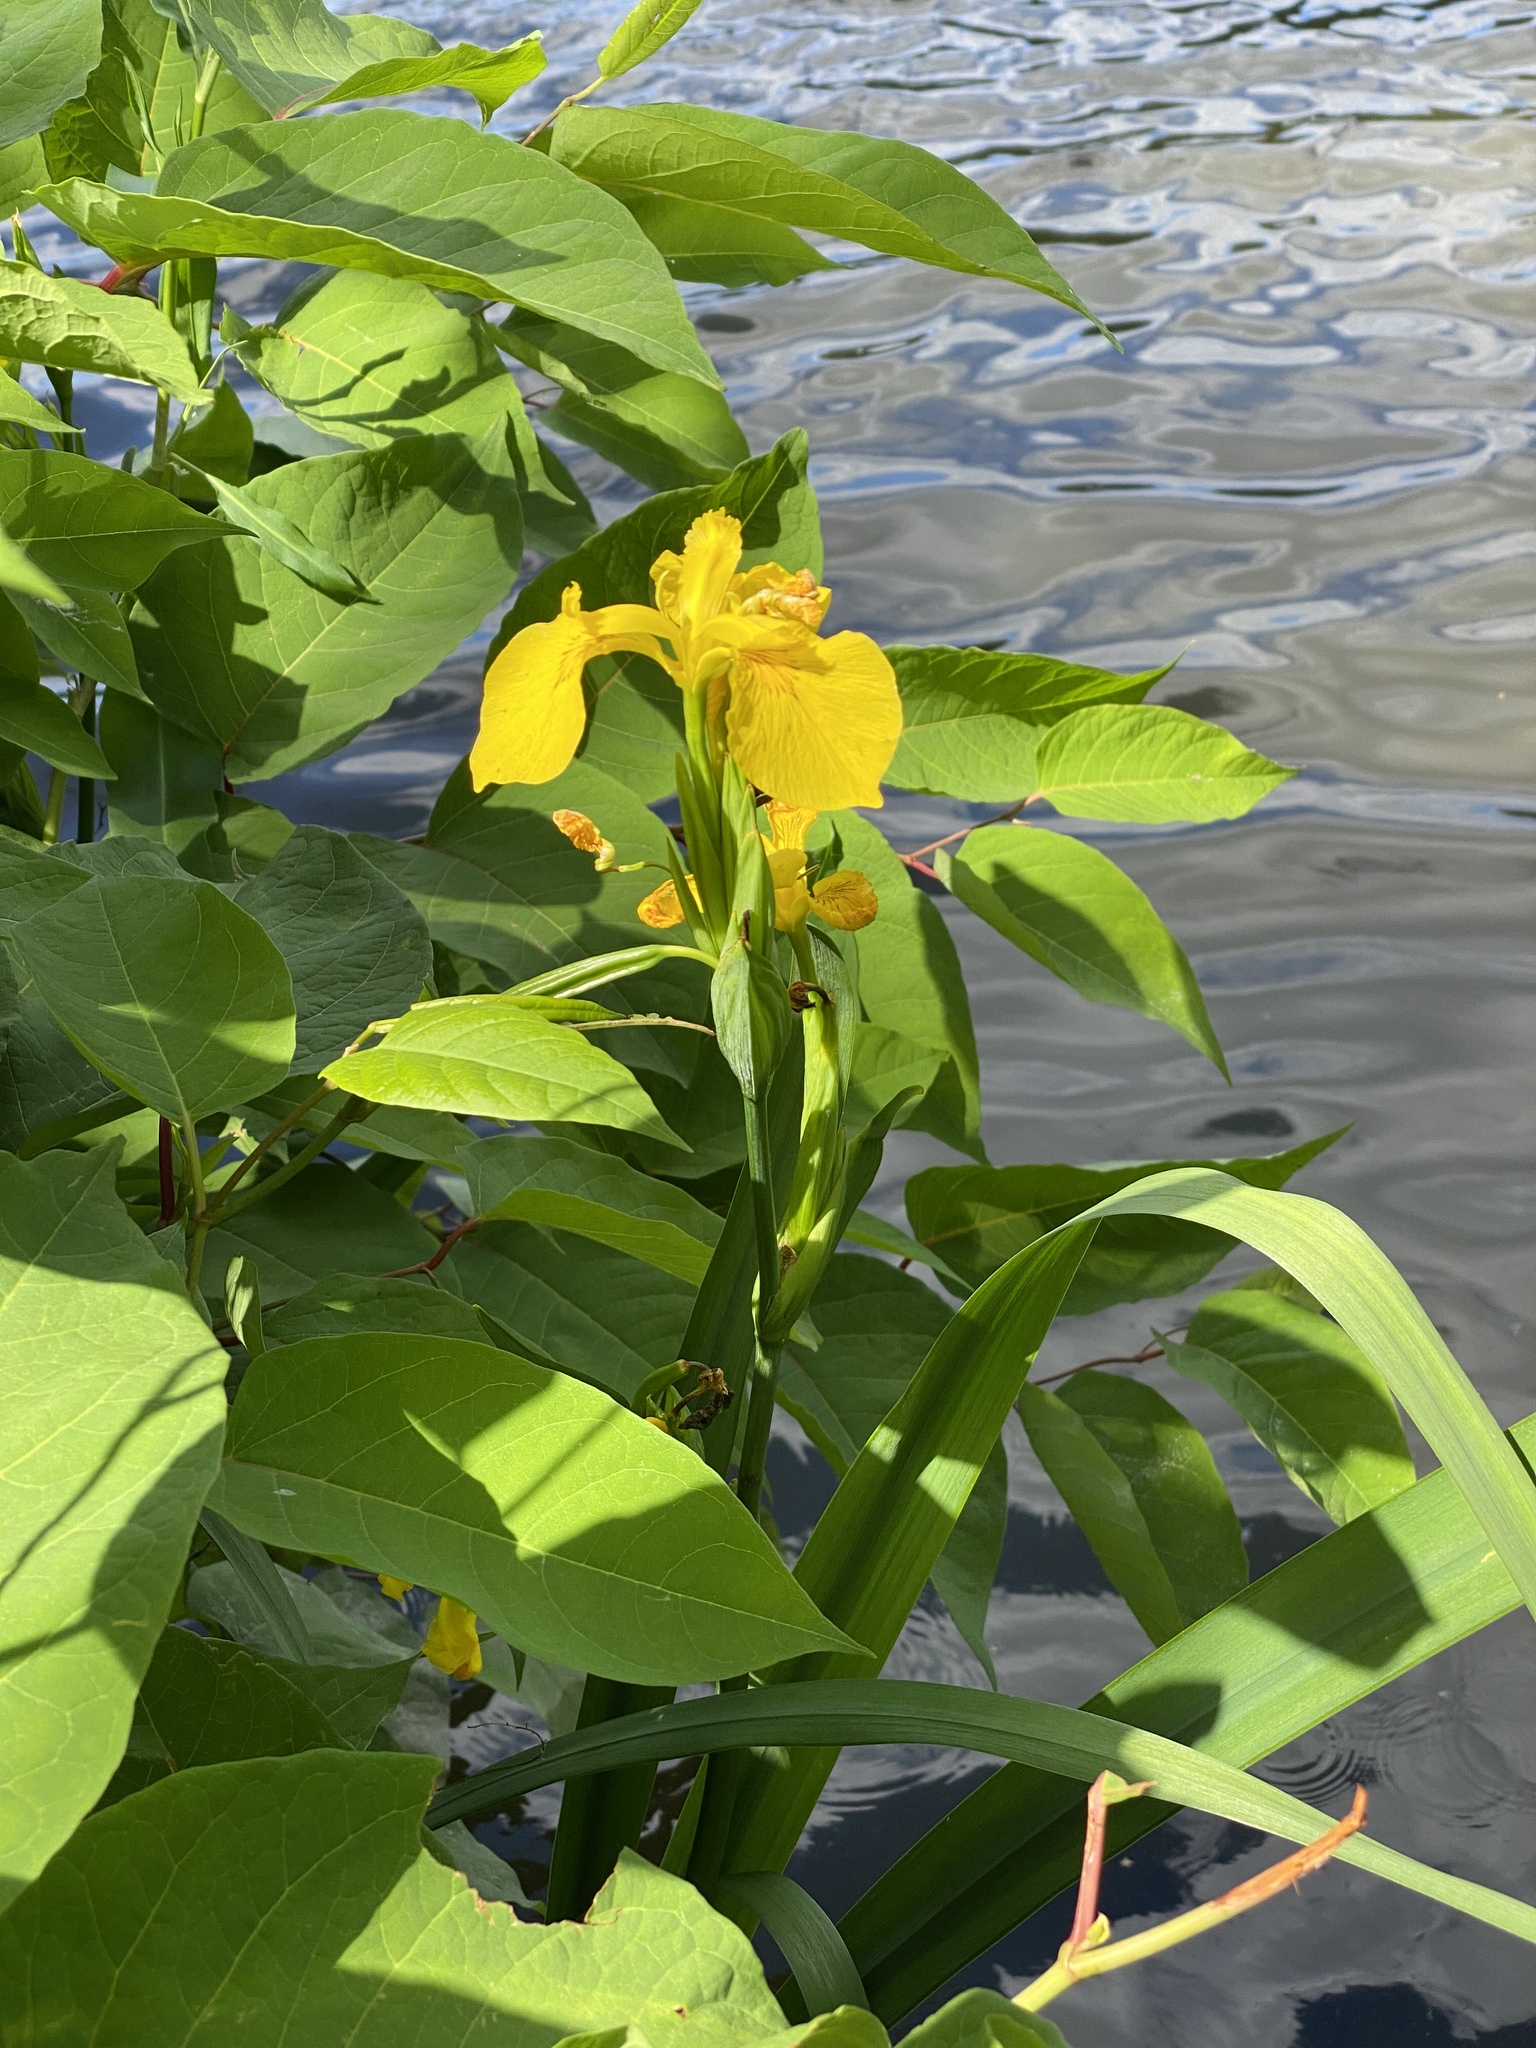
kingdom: Plantae
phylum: Tracheophyta
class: Liliopsida
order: Asparagales
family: Iridaceae
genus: Iris
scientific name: Iris pseudacorus
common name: Yellow flag
